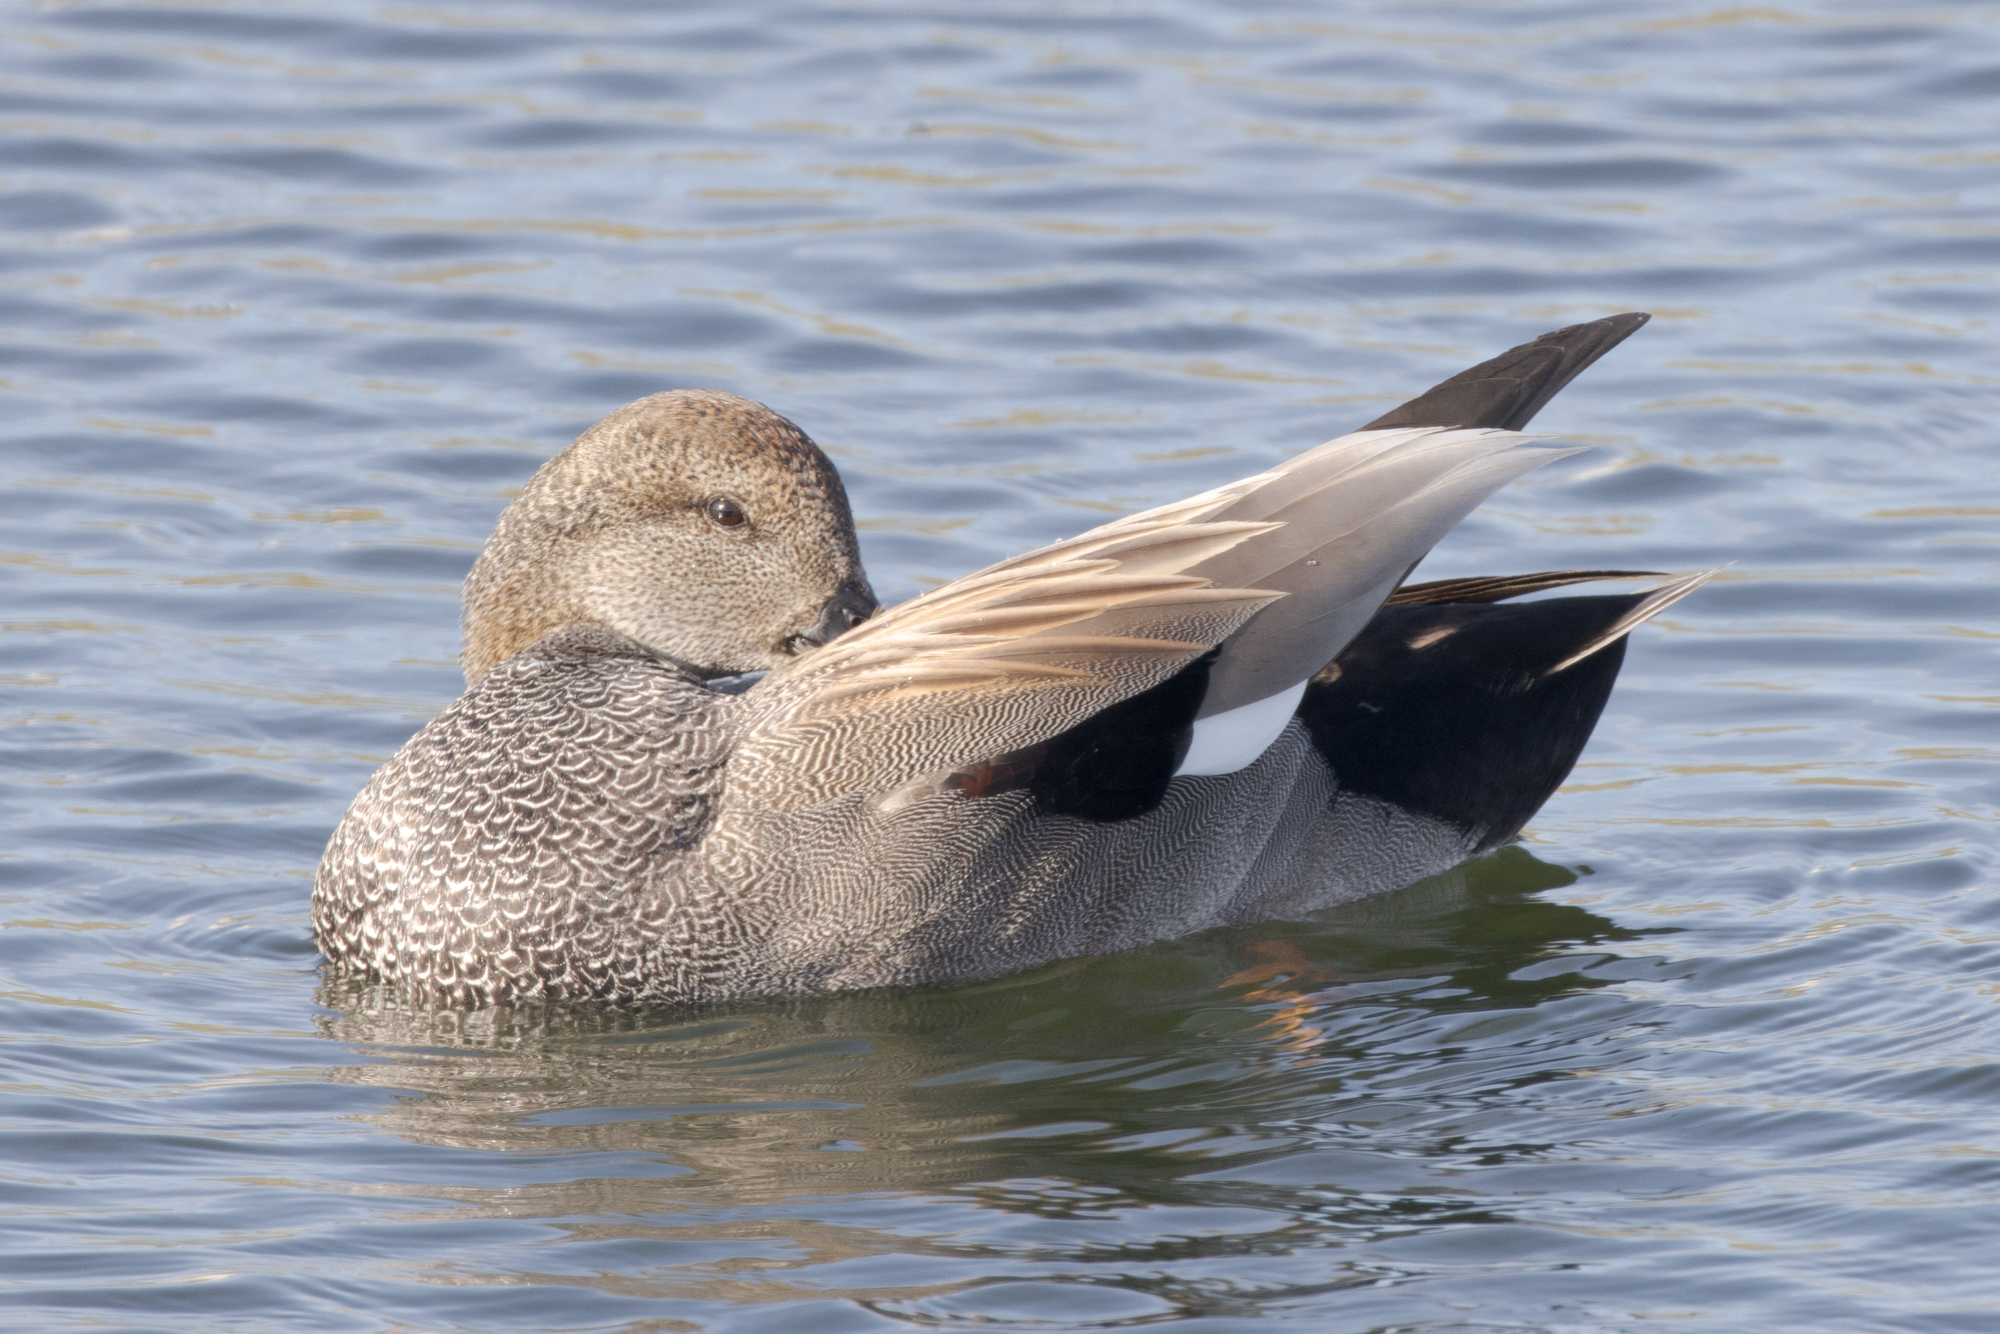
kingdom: Animalia
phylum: Chordata
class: Aves
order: Anseriformes
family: Anatidae
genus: Mareca
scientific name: Mareca strepera
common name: Gadwall
